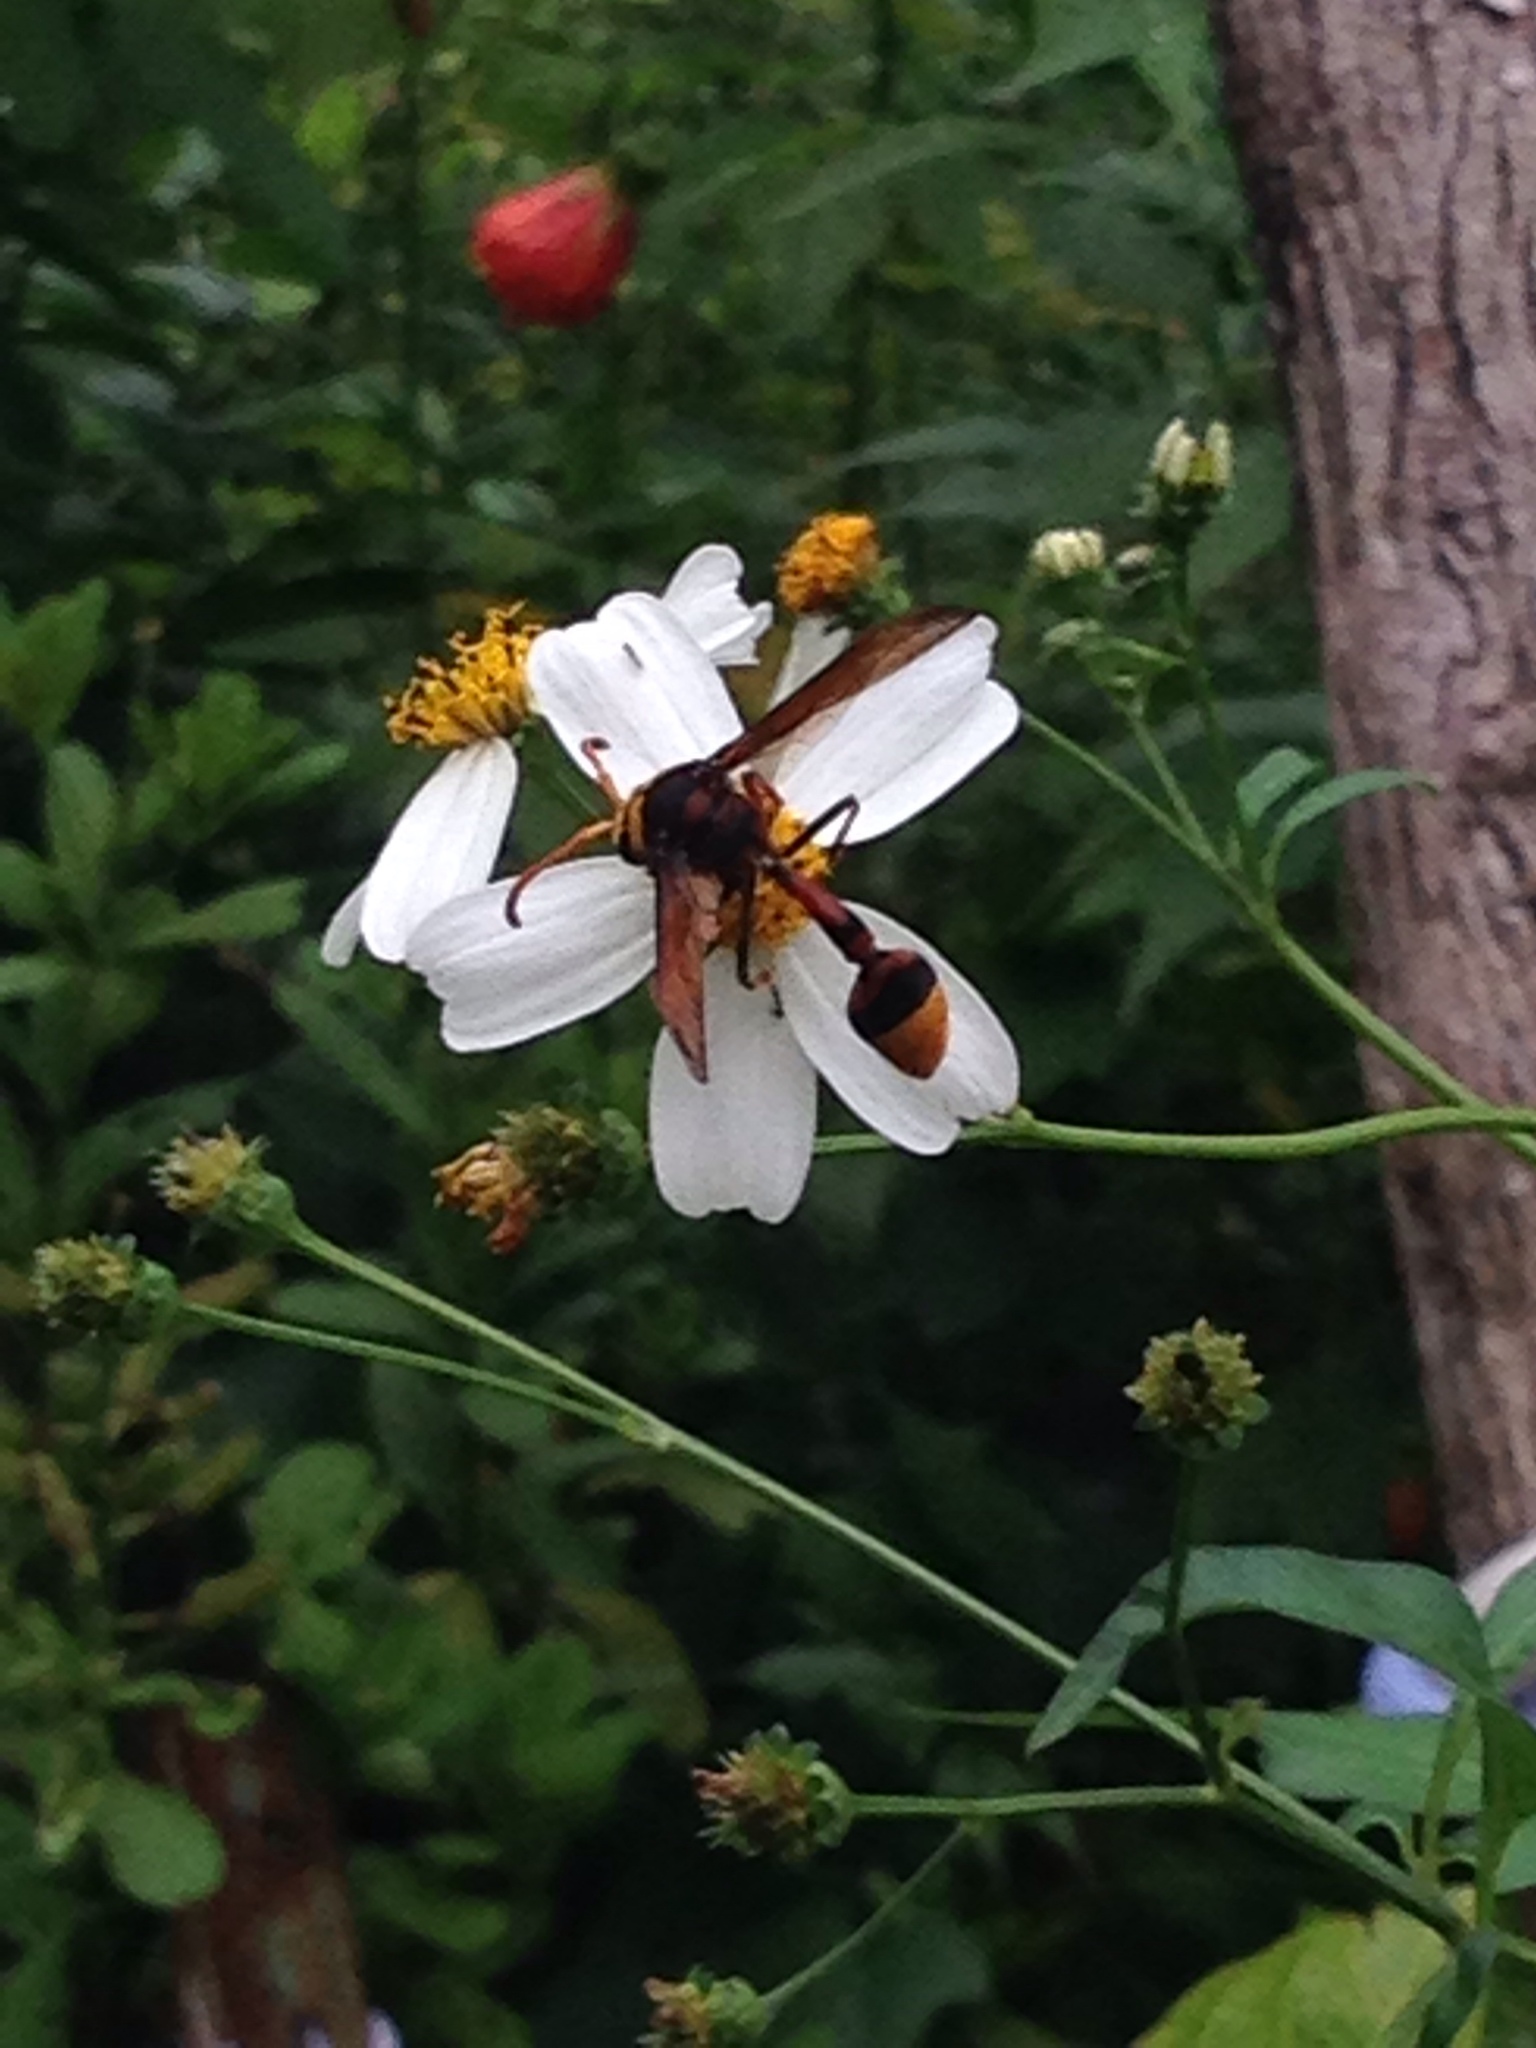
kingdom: Animalia
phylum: Arthropoda
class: Insecta
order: Hymenoptera
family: Eumenidae
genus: Delta
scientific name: Delta pyriforme
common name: Wasp
